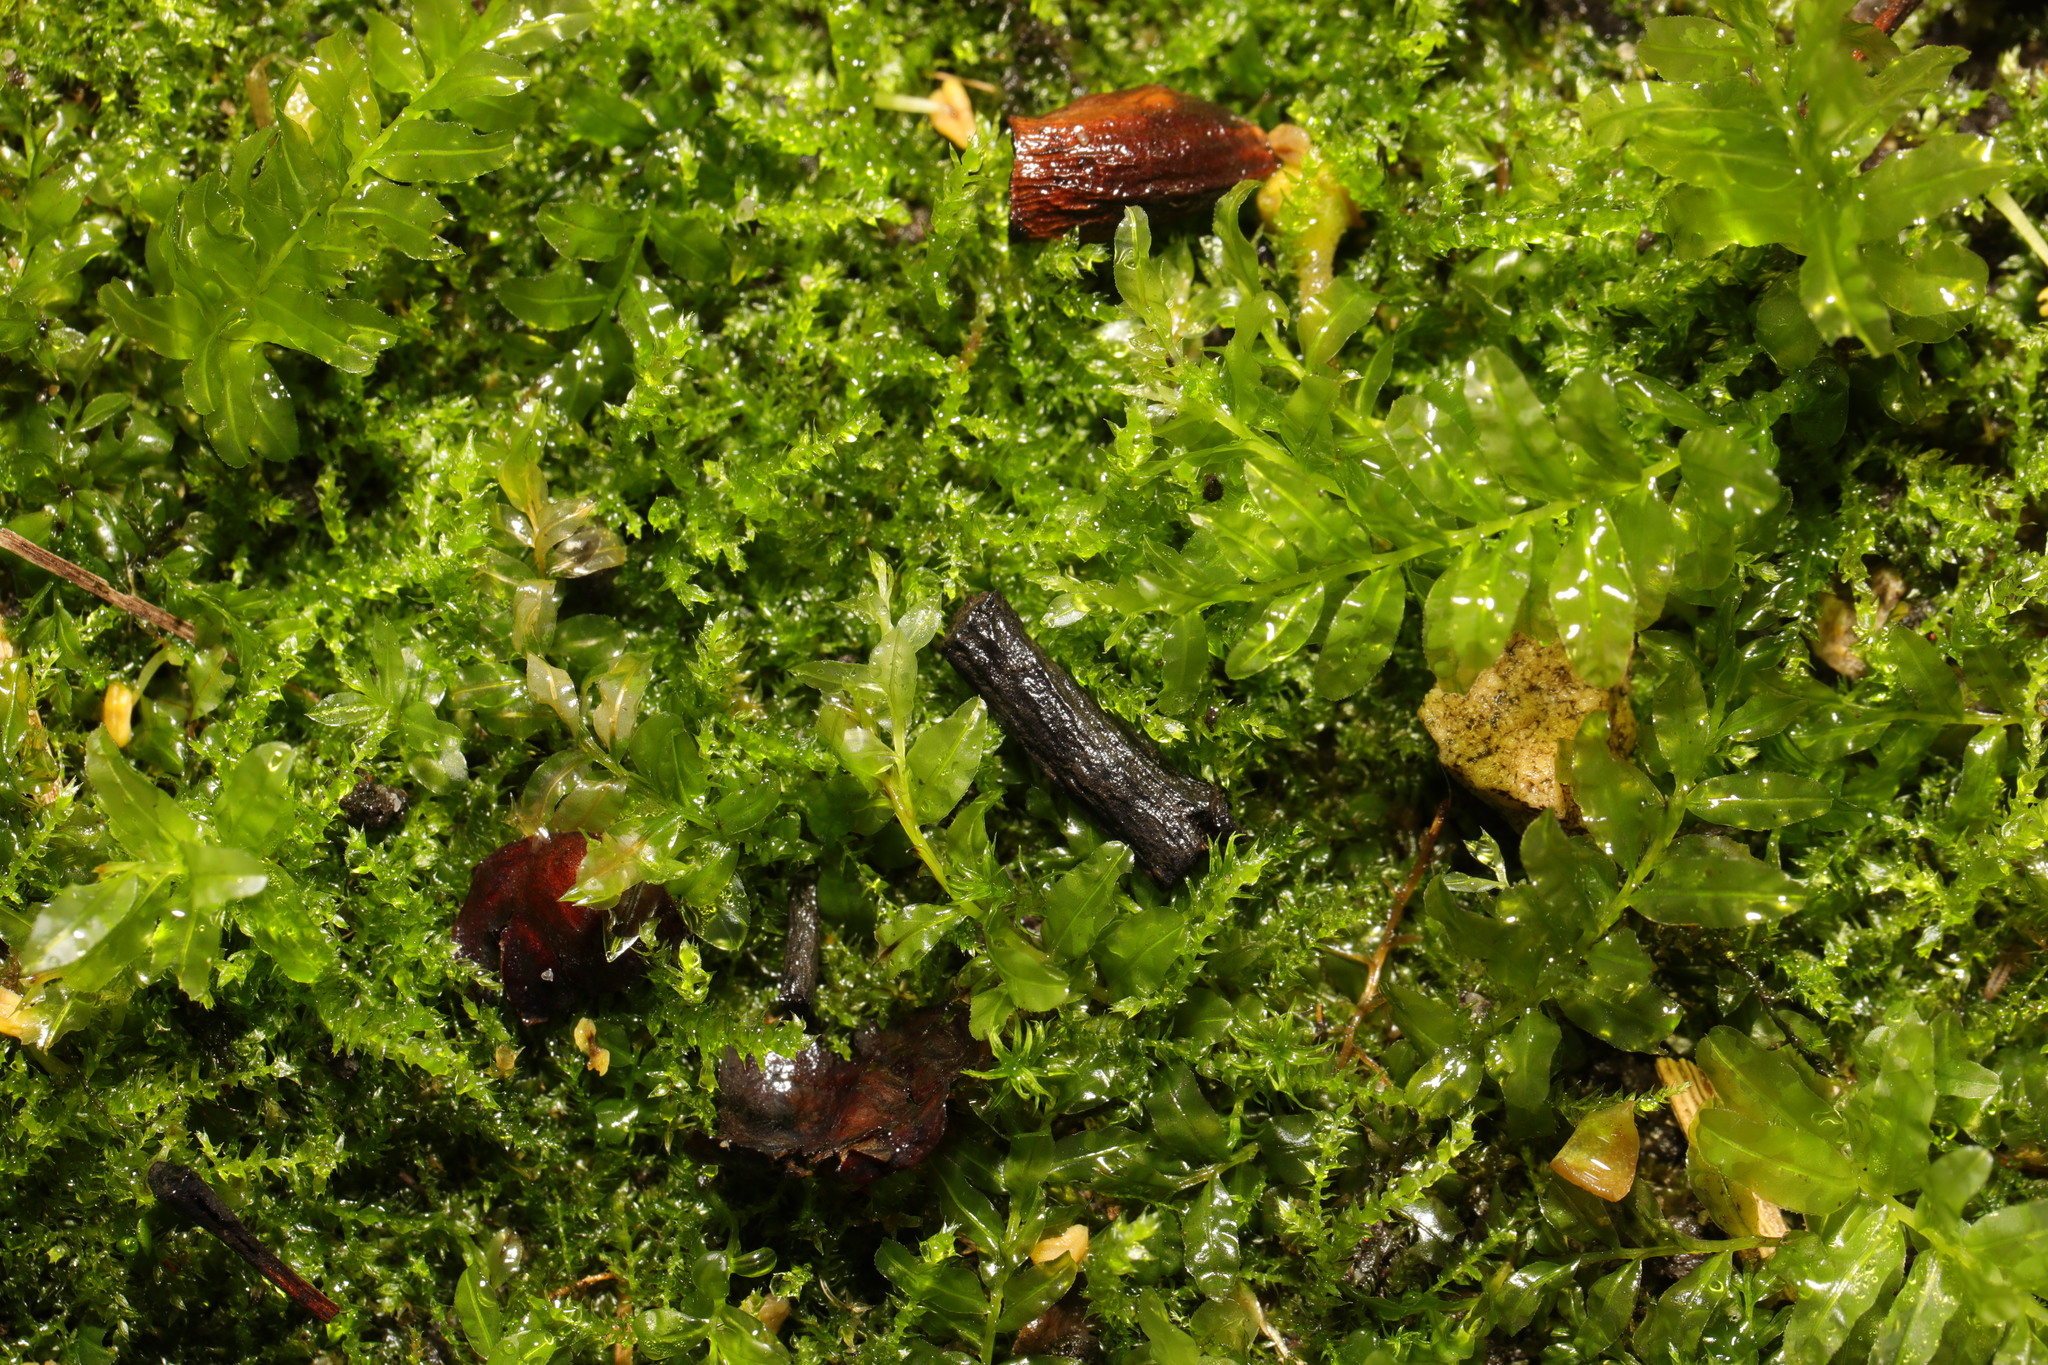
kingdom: Plantae
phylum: Bryophyta
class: Bryopsida
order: Bryales
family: Mniaceae
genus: Plagiomnium
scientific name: Plagiomnium undulatum
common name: Hart's-tongue thyme-moss
